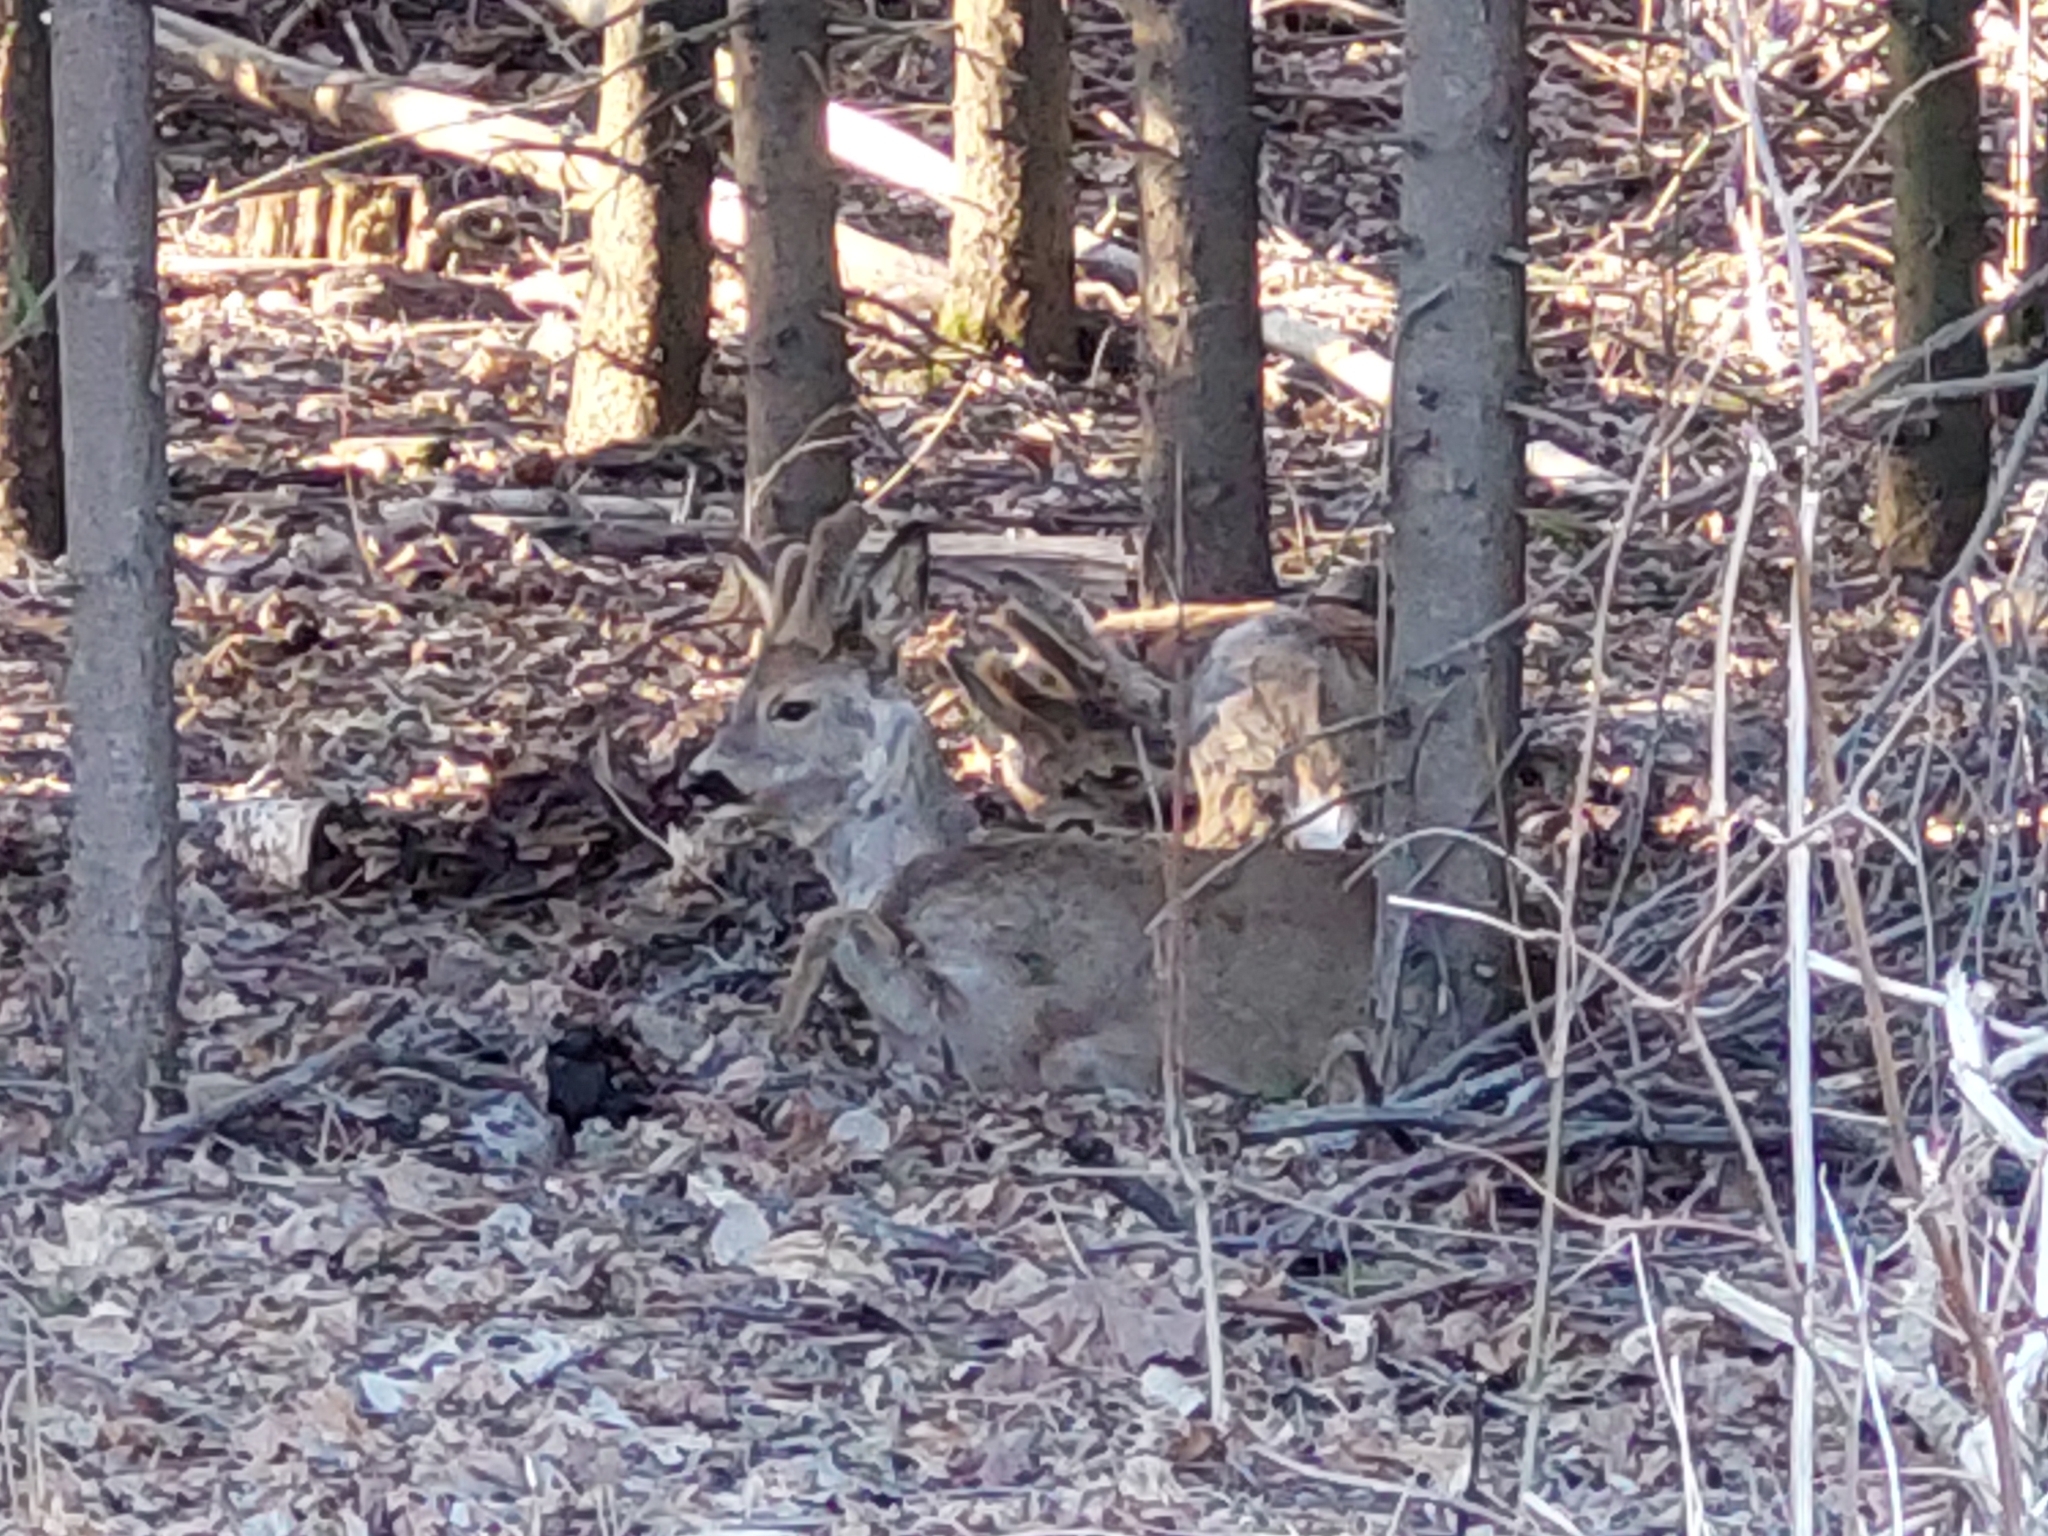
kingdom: Animalia
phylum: Chordata
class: Mammalia
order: Artiodactyla
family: Cervidae
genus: Capreolus
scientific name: Capreolus capreolus
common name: Western roe deer
